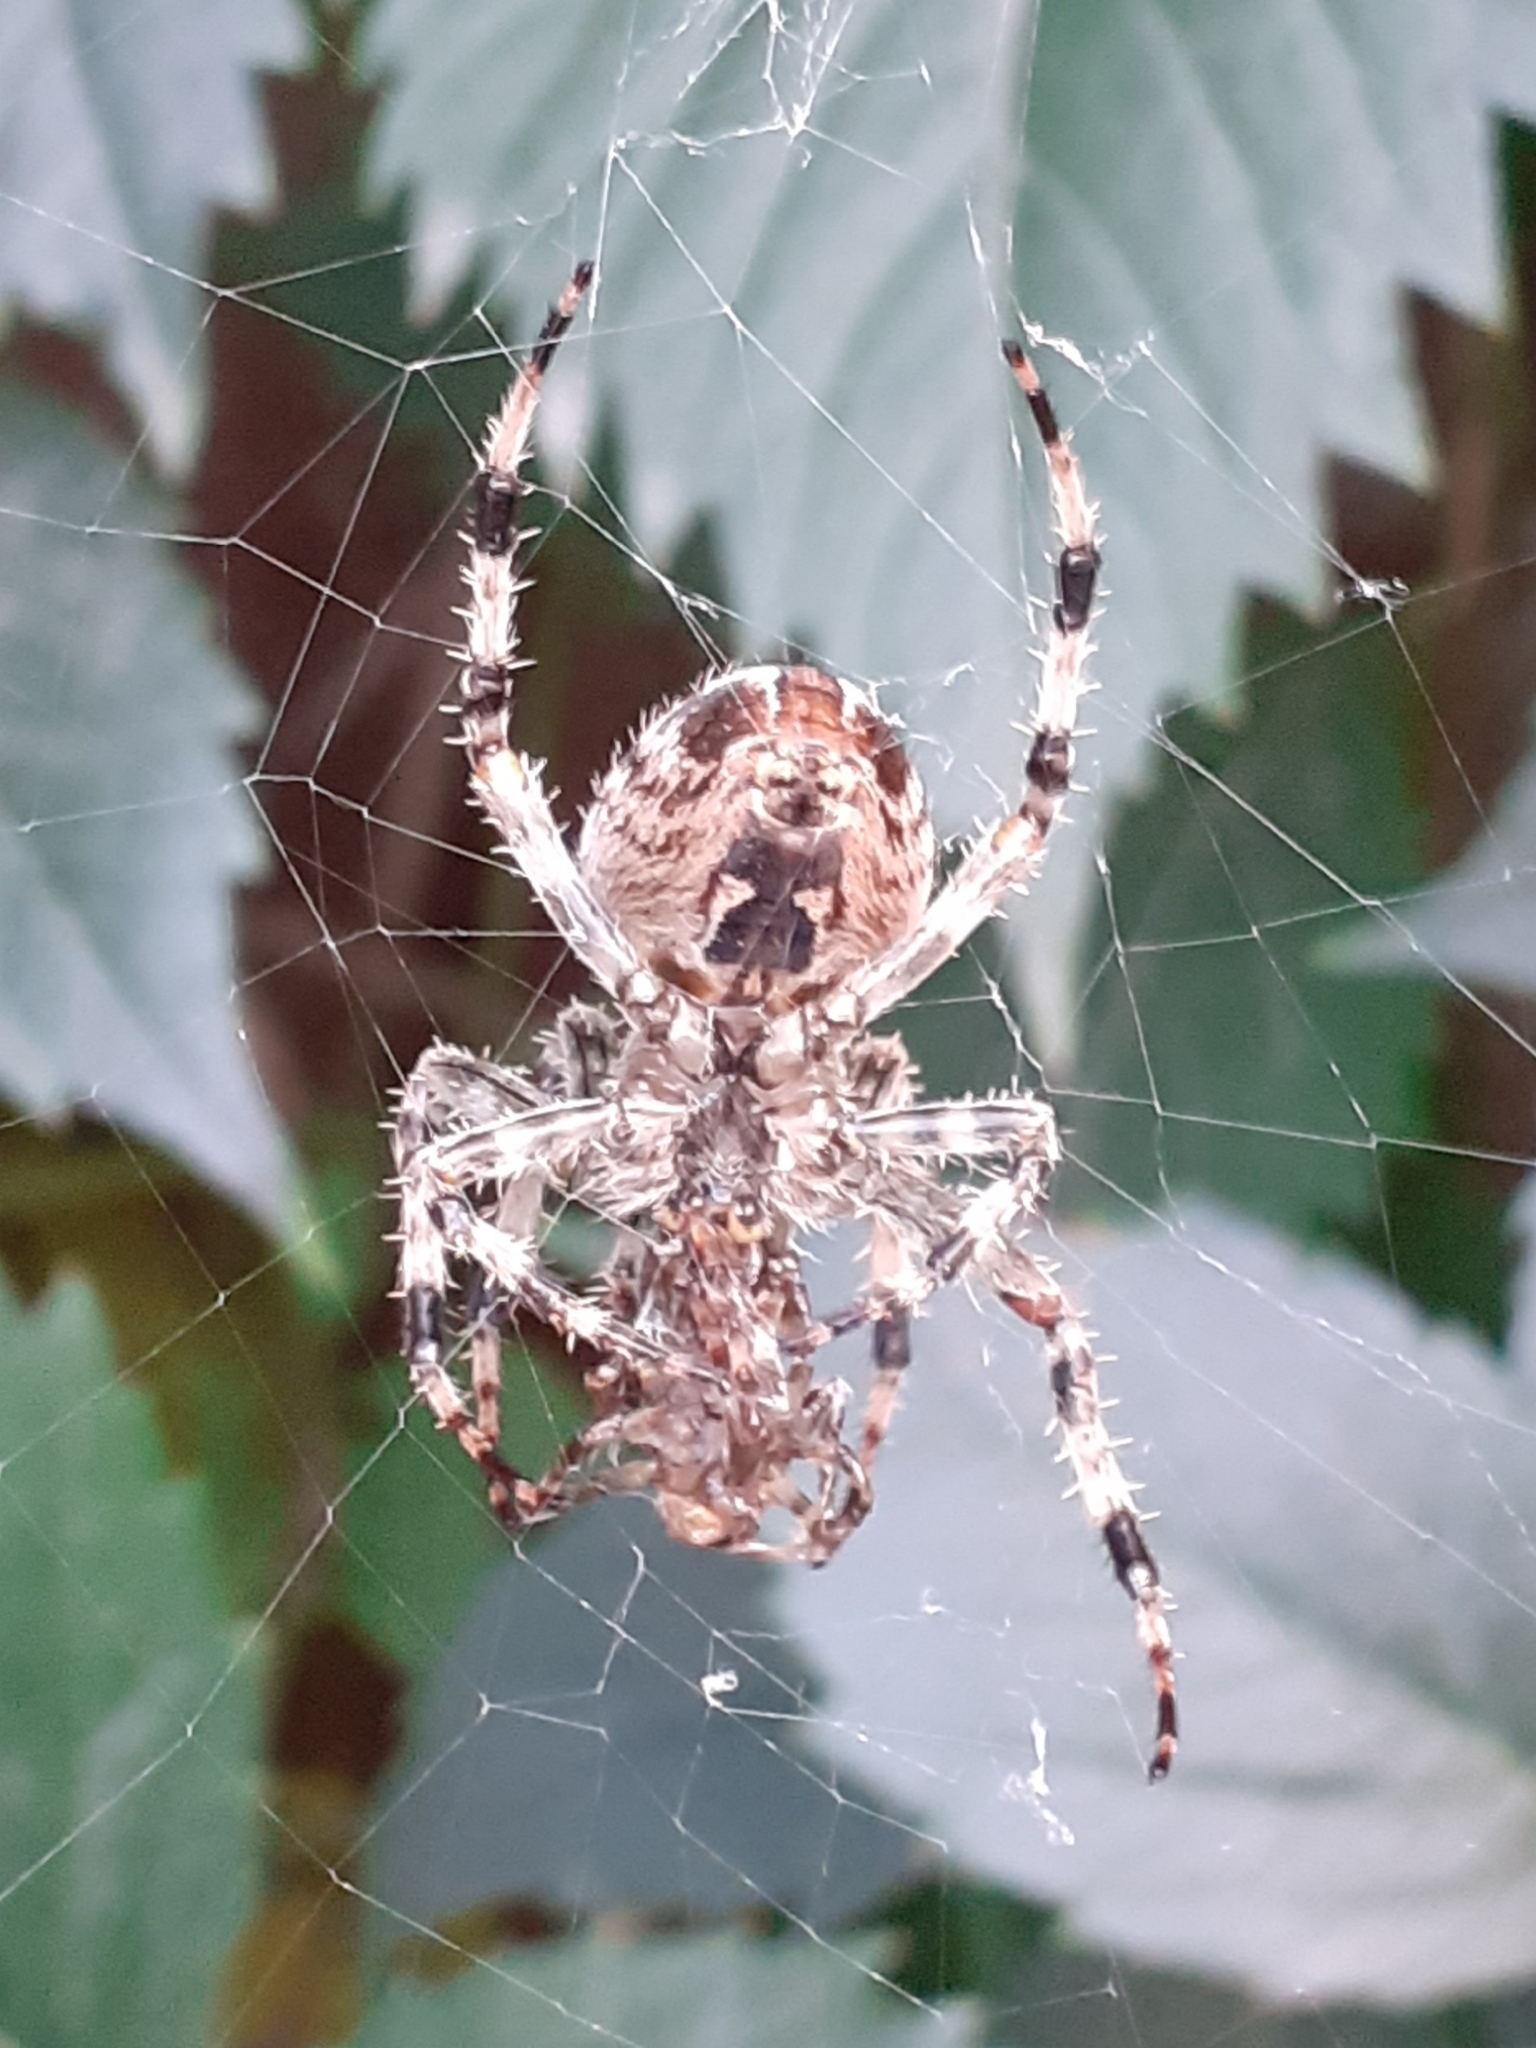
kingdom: Animalia
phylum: Arthropoda
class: Arachnida
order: Araneae
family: Araneidae
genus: Araneus
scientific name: Araneus diadematus
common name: Cross orbweaver
